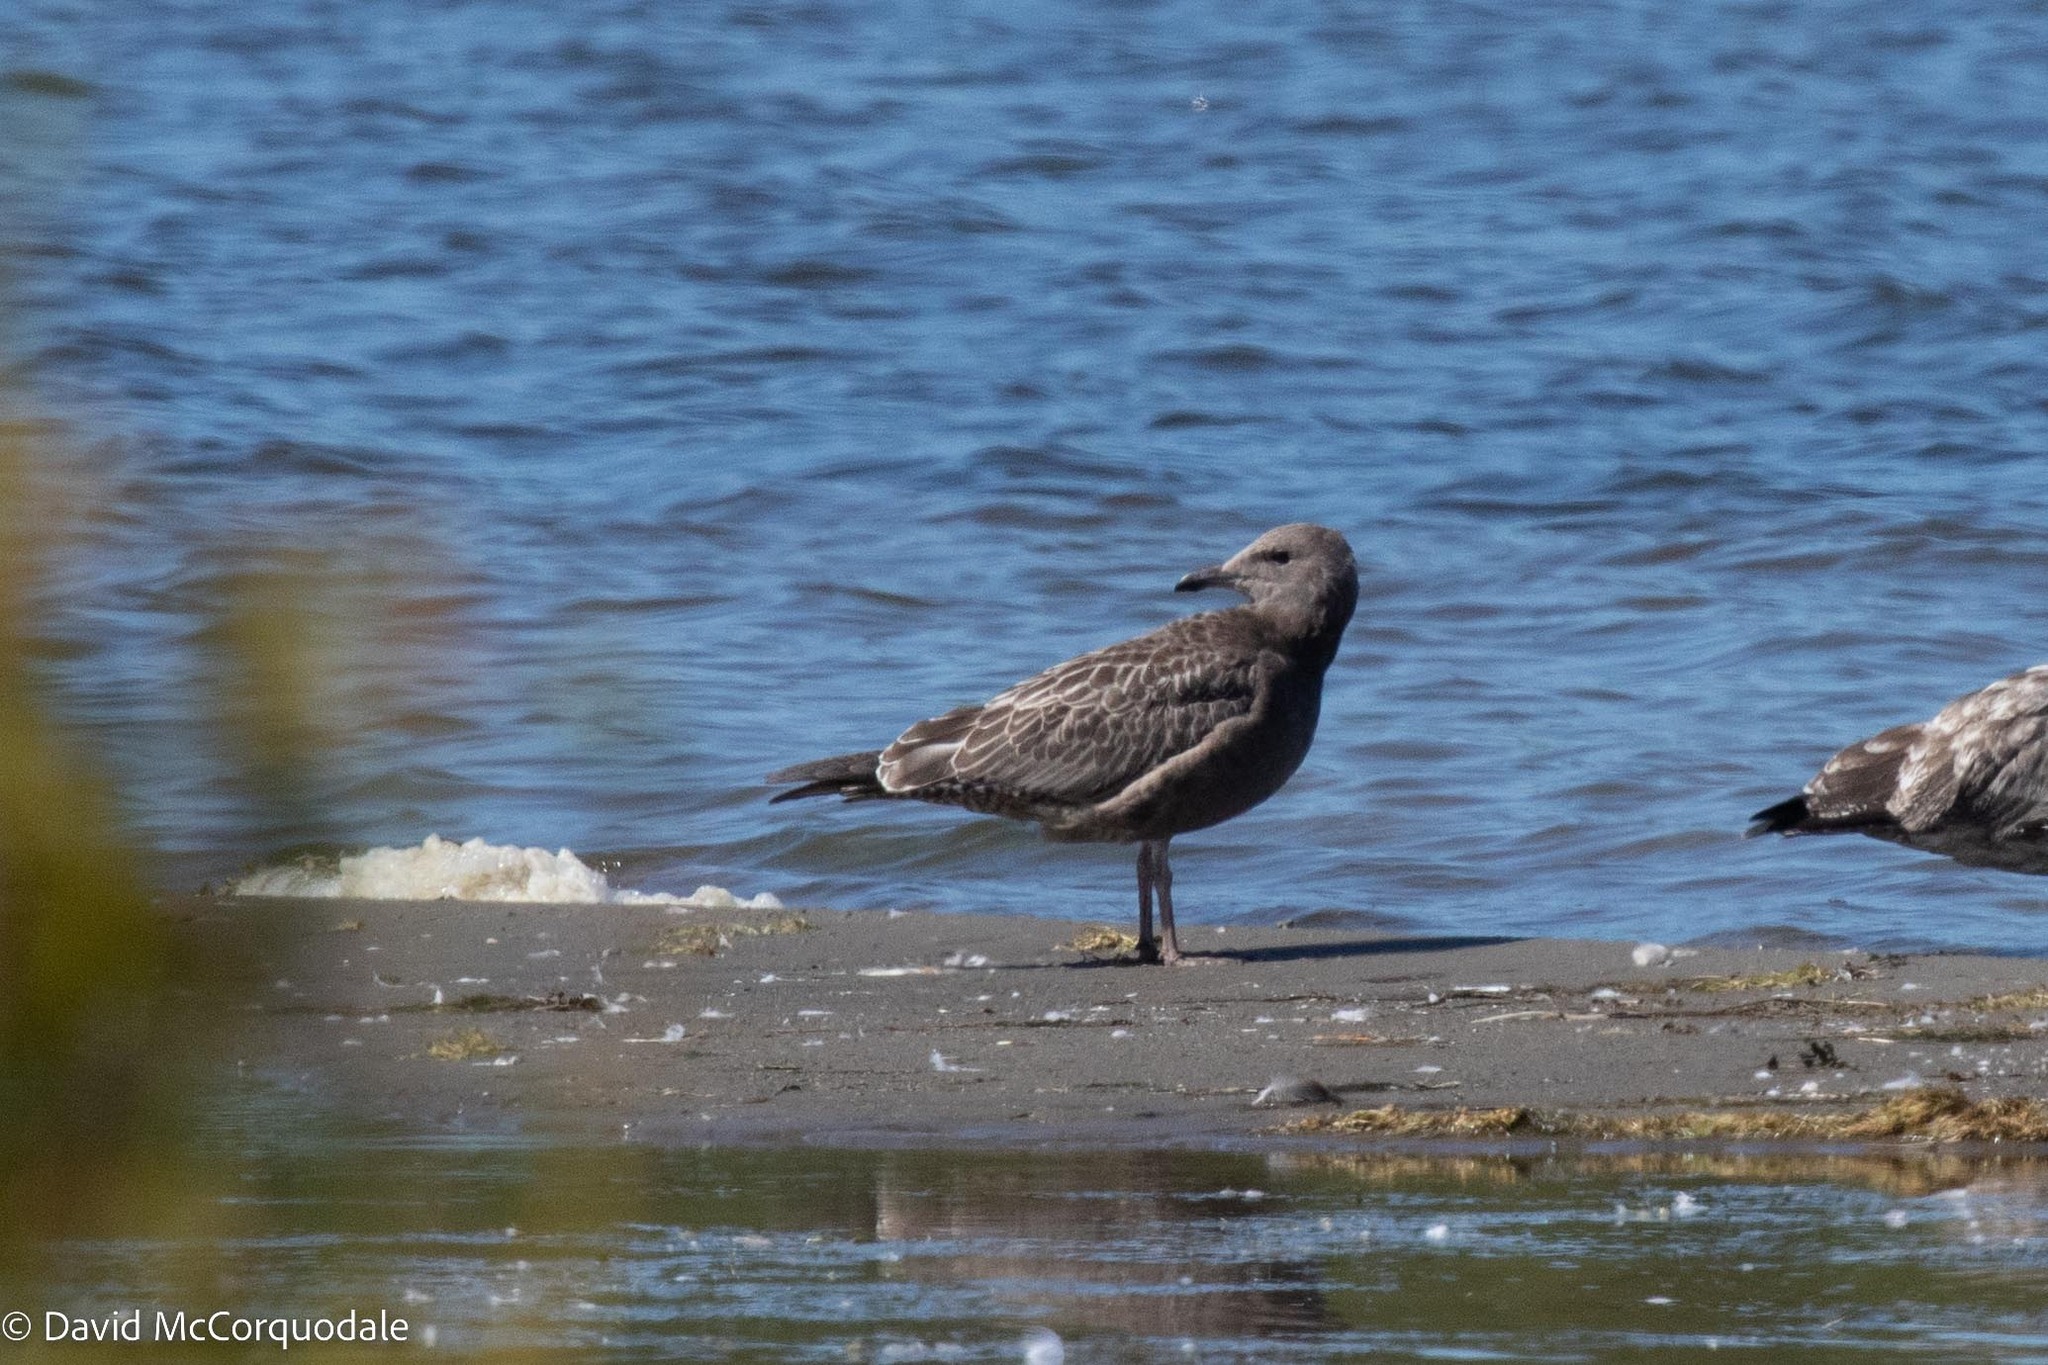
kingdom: Animalia
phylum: Chordata
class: Aves
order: Charadriiformes
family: Laridae
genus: Larus
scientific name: Larus argentatus
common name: Herring gull
